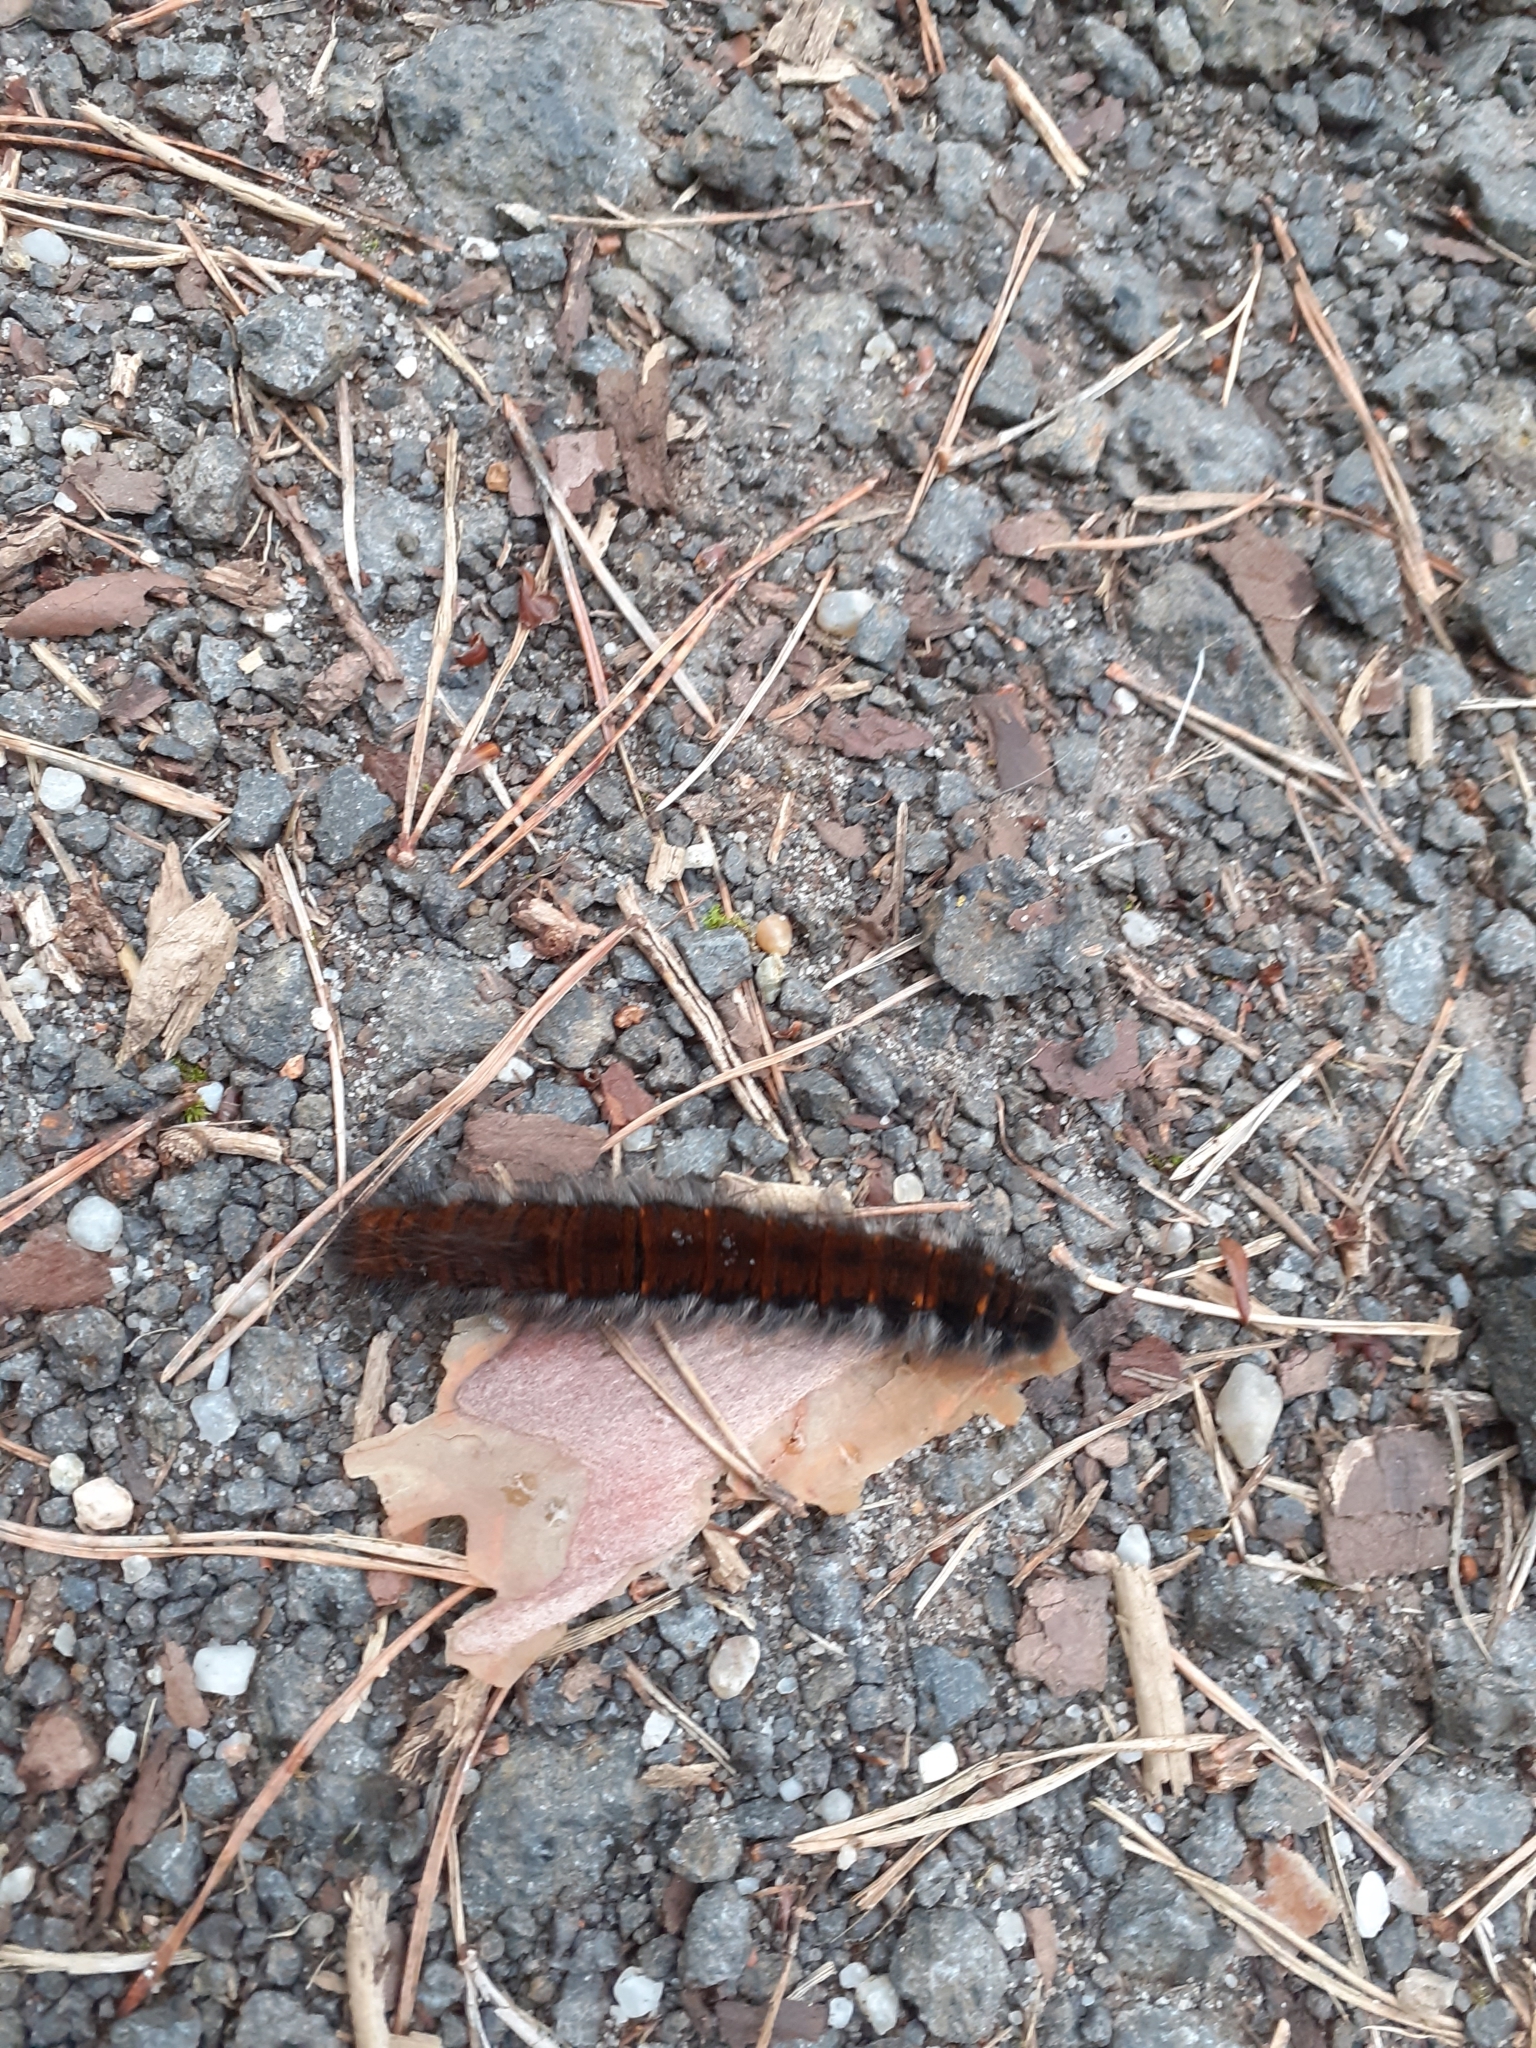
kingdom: Animalia
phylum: Arthropoda
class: Insecta
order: Lepidoptera
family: Lasiocampidae
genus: Macrothylacia
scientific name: Macrothylacia rubi
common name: Fox moth
